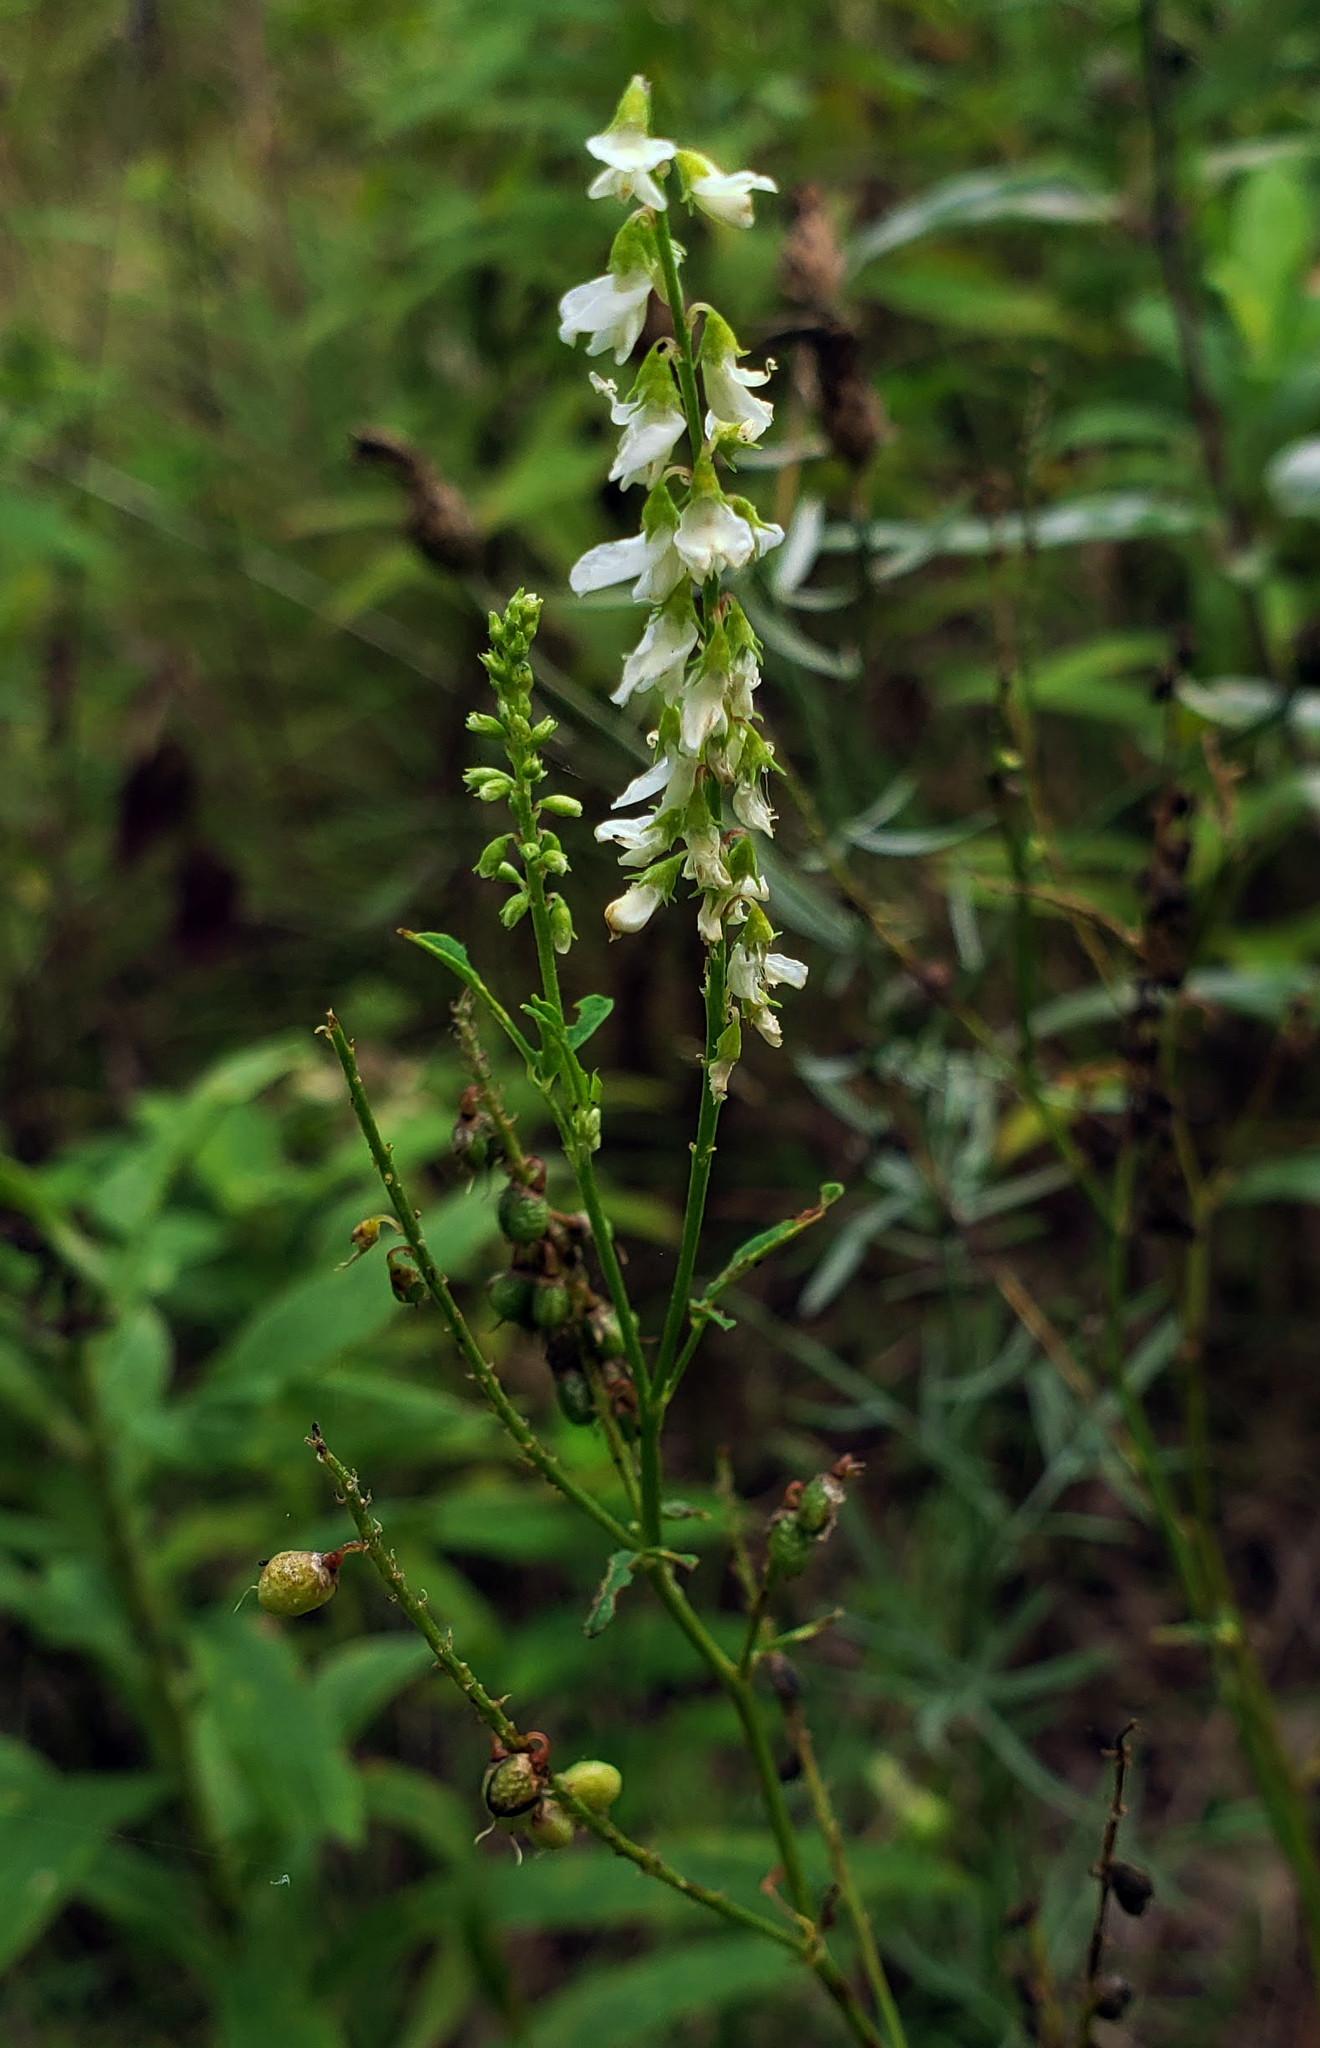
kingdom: Plantae
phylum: Tracheophyta
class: Magnoliopsida
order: Fabales
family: Fabaceae
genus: Melilotus
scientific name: Melilotus albus
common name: White melilot
